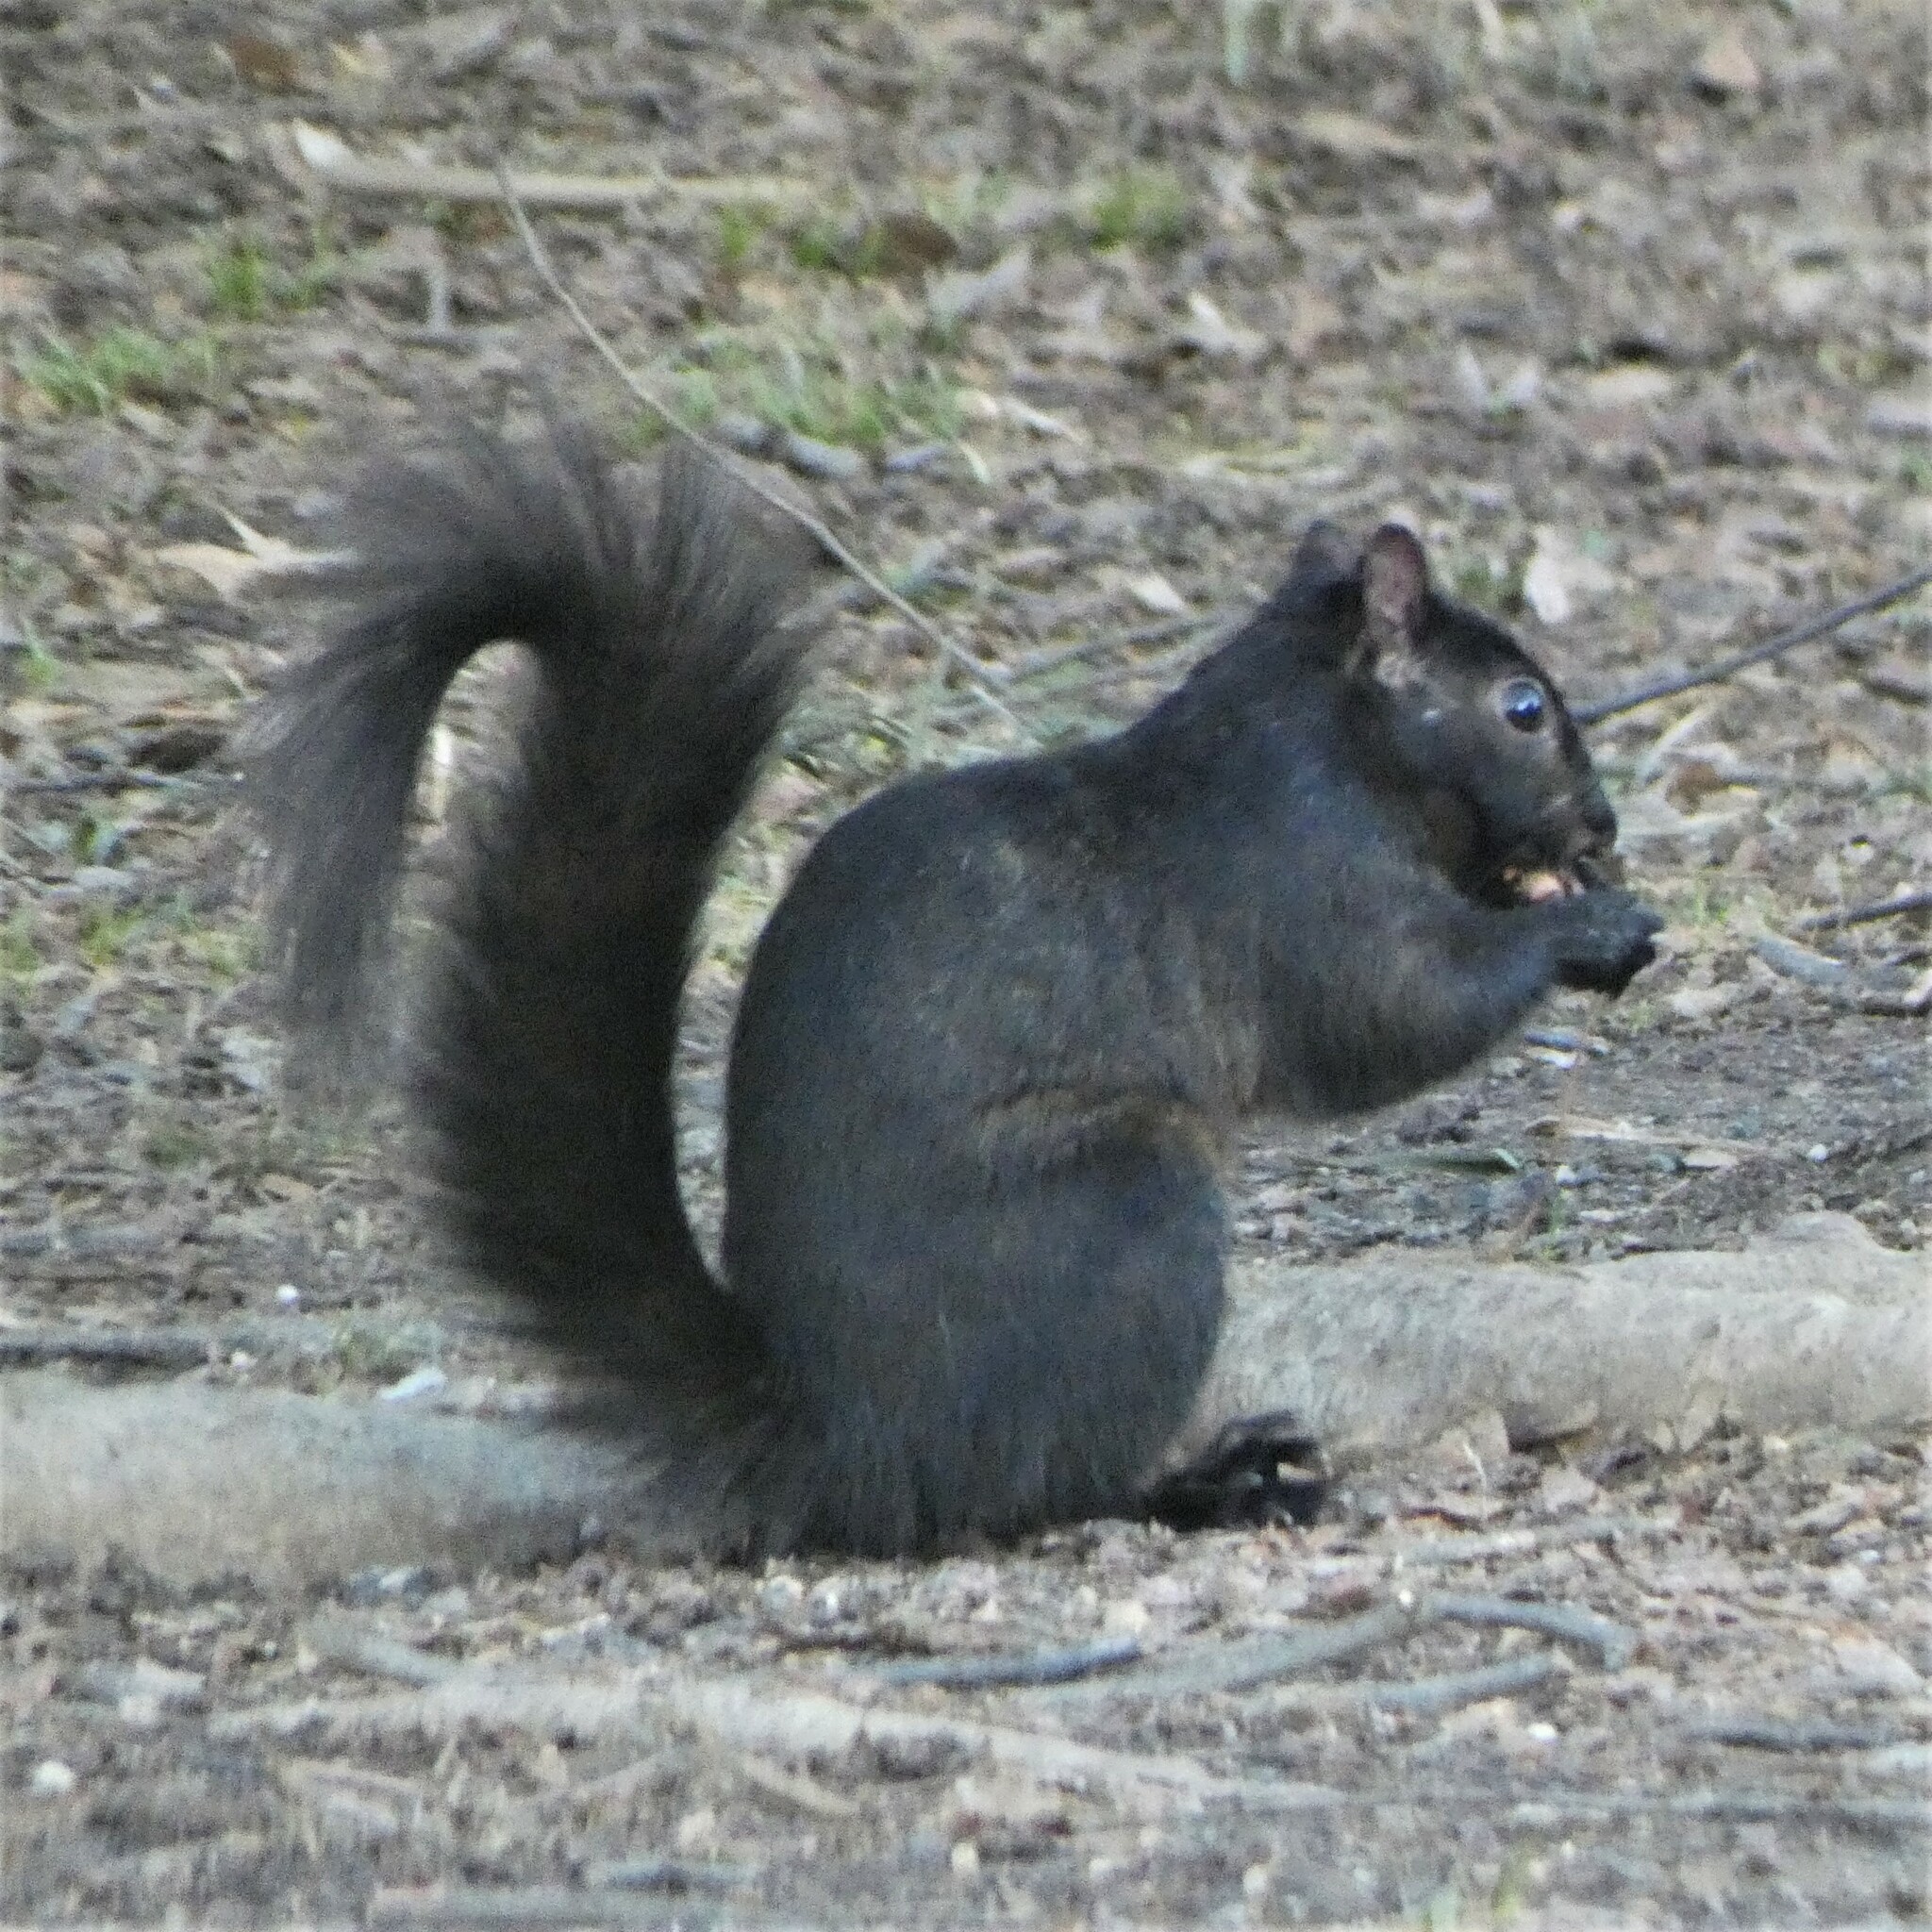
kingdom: Animalia
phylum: Chordata
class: Mammalia
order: Rodentia
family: Sciuridae
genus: Sciurus
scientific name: Sciurus carolinensis
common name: Eastern gray squirrel
